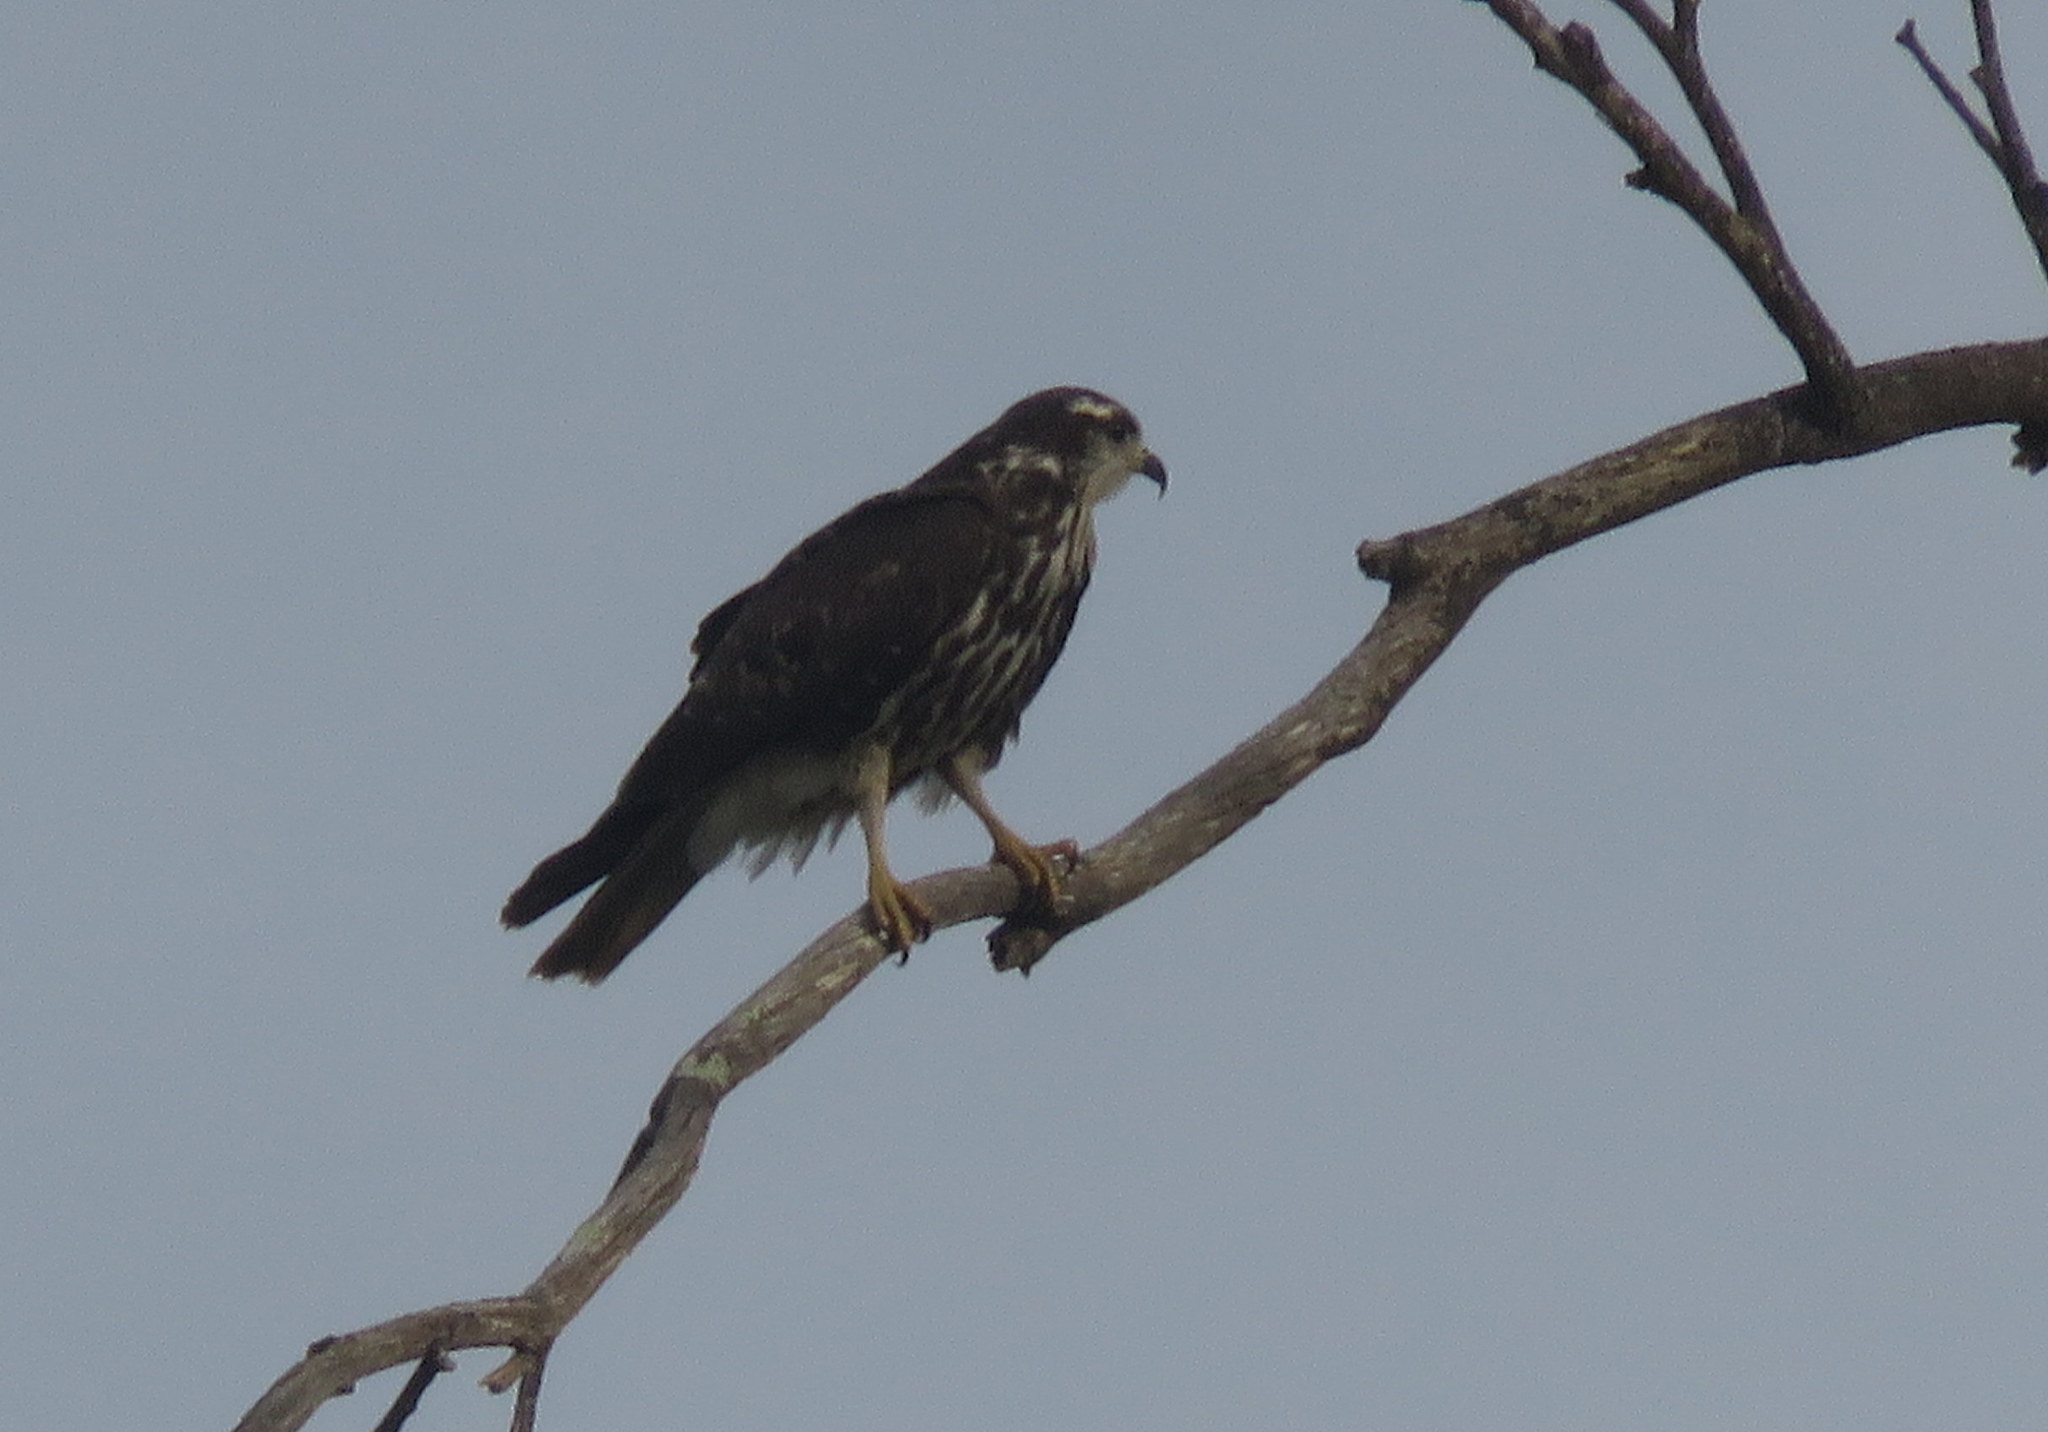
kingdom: Animalia
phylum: Chordata
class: Aves
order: Accipitriformes
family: Accipitridae
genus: Rostrhamus
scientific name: Rostrhamus sociabilis
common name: Snail kite
